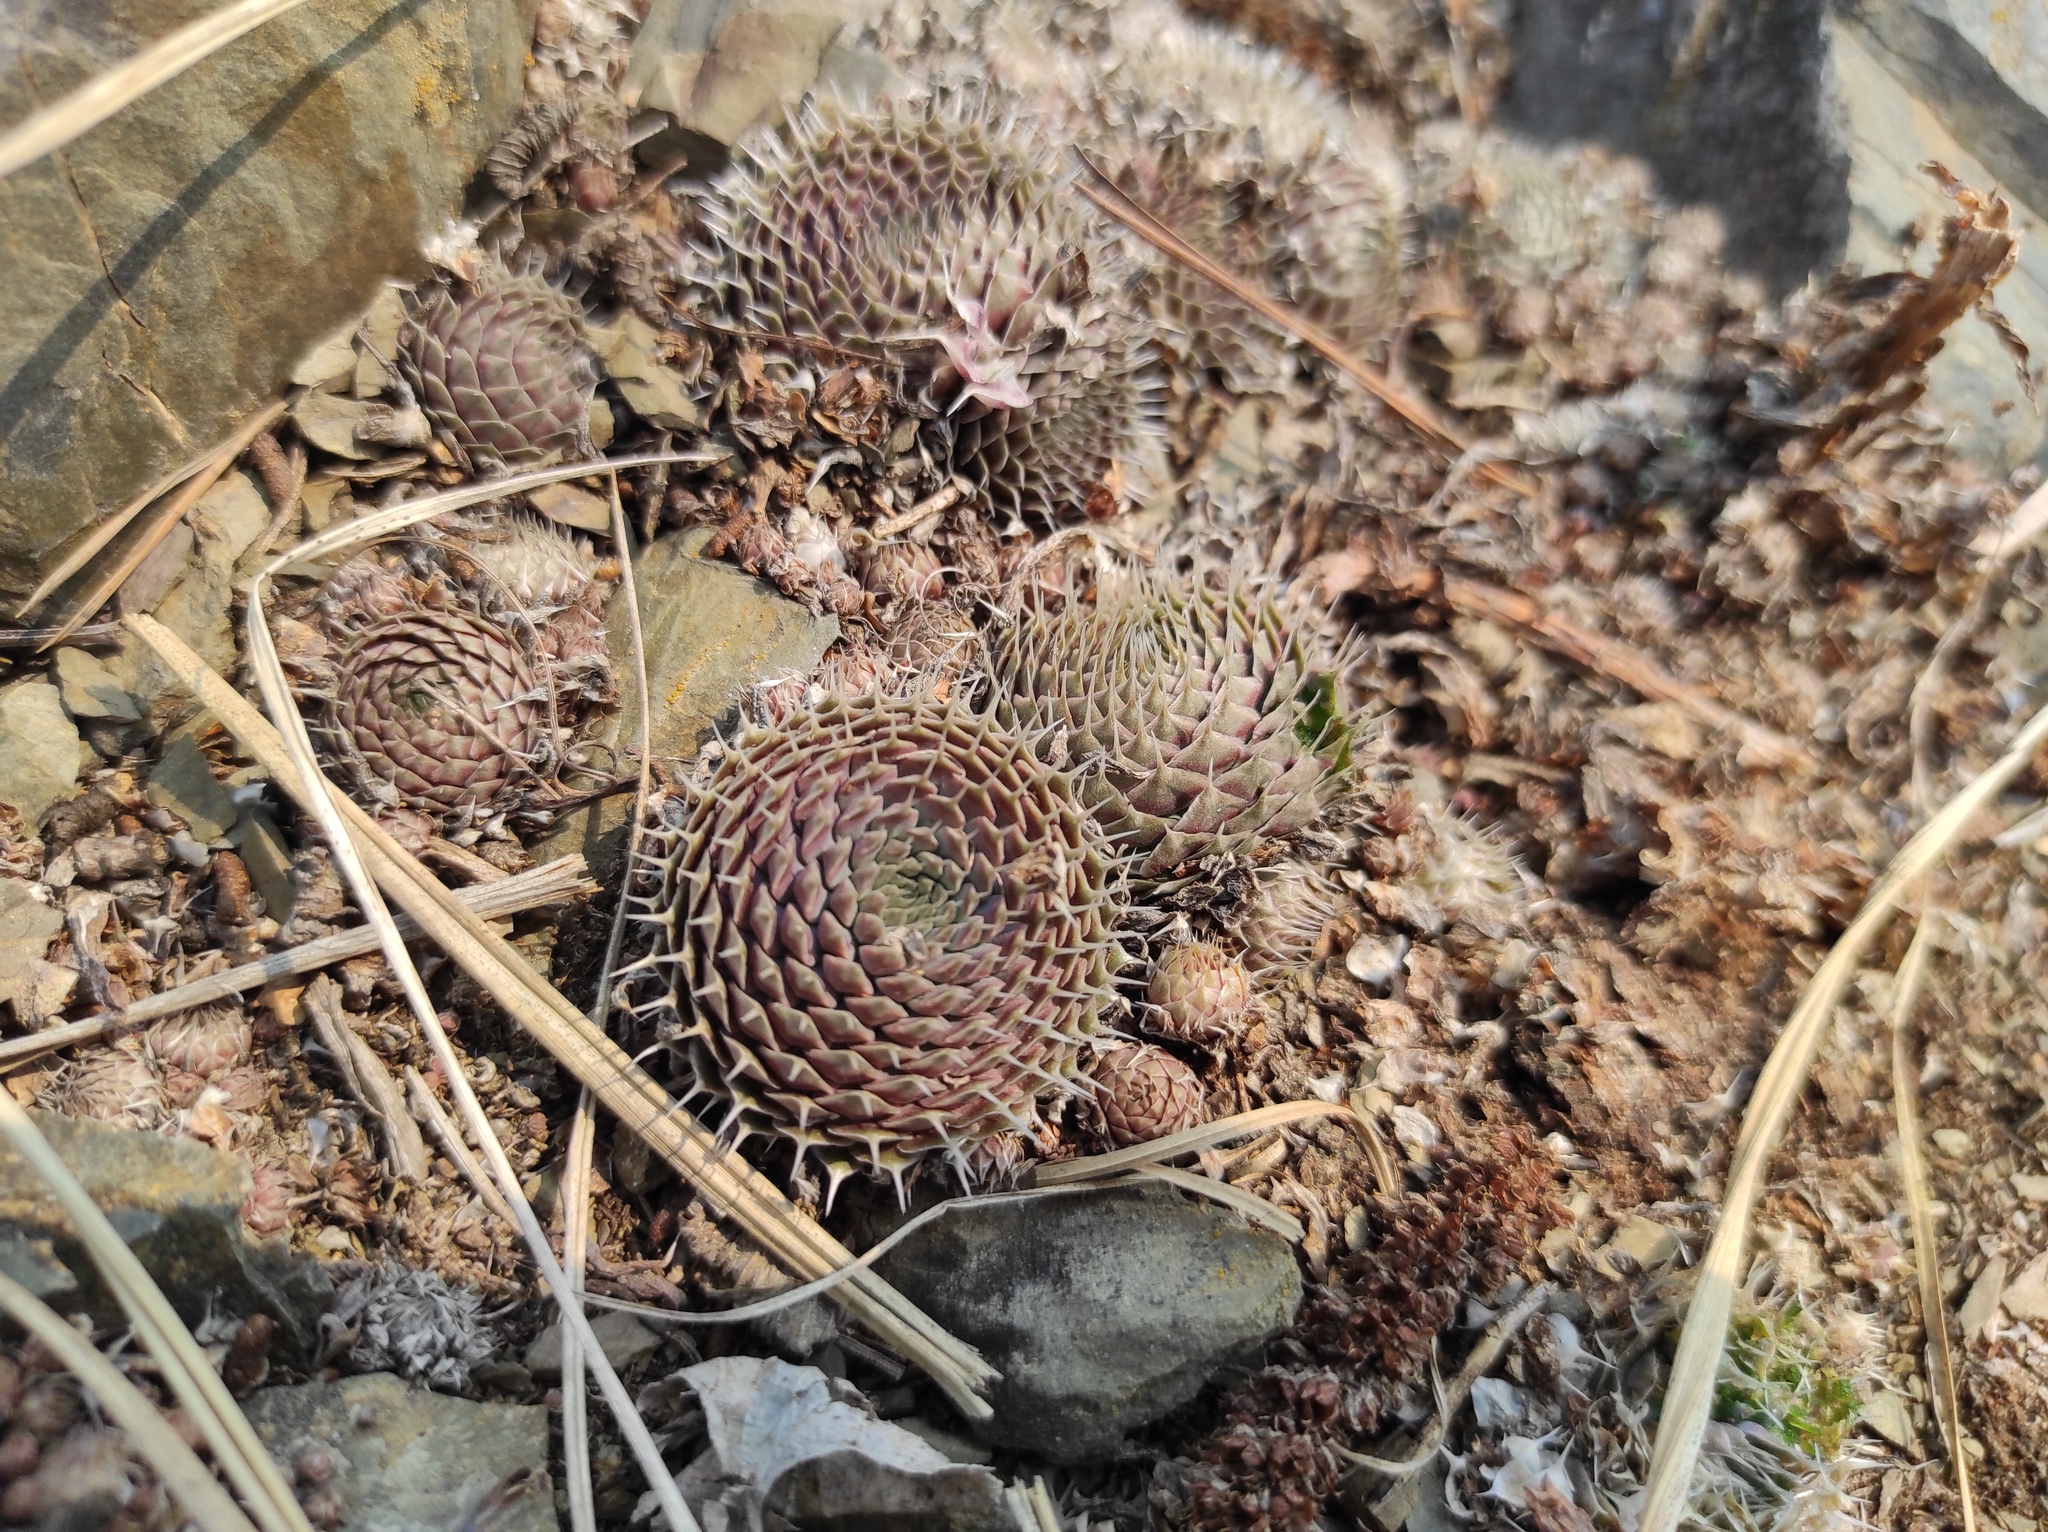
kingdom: Plantae
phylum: Tracheophyta
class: Magnoliopsida
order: Saxifragales
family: Crassulaceae
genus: Orostachys
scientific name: Orostachys spinosa
